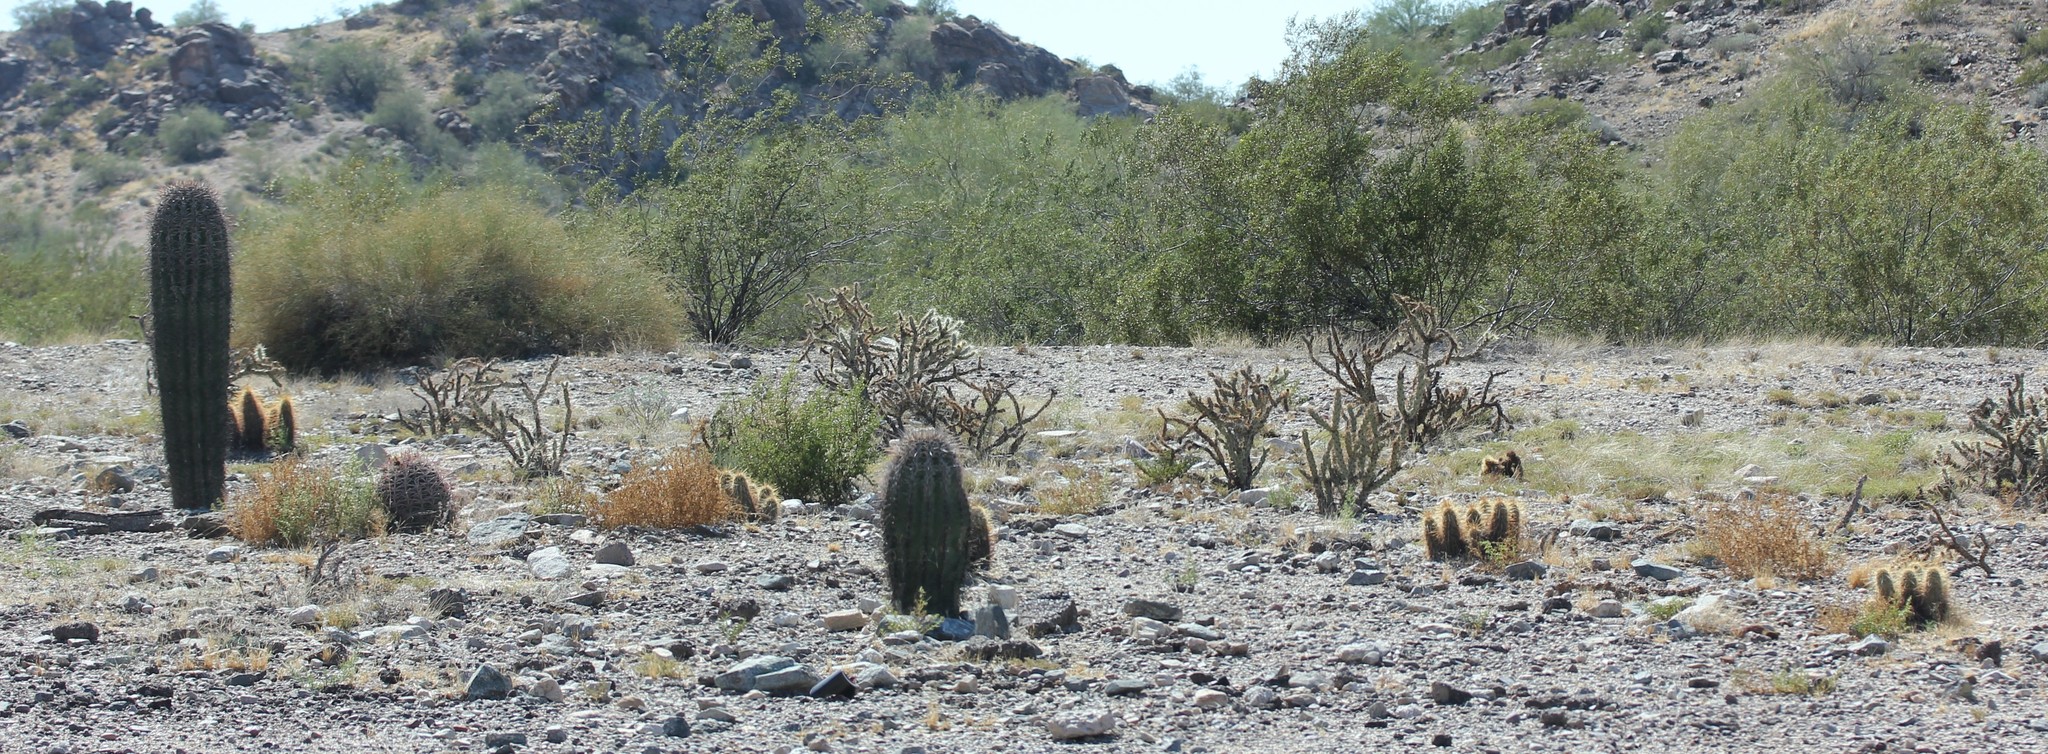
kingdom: Plantae
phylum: Tracheophyta
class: Magnoliopsida
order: Caryophyllales
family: Cactaceae
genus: Echinocereus
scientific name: Echinocereus engelmannii
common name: Engelmann's hedgehog cactus
